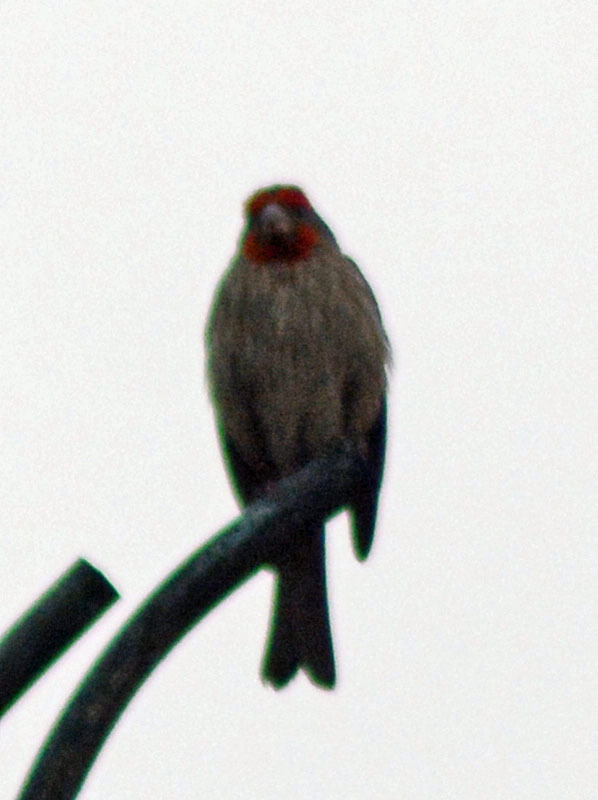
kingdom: Animalia
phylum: Chordata
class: Aves
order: Passeriformes
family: Fringillidae
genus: Haemorhous
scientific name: Haemorhous mexicanus
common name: House finch
